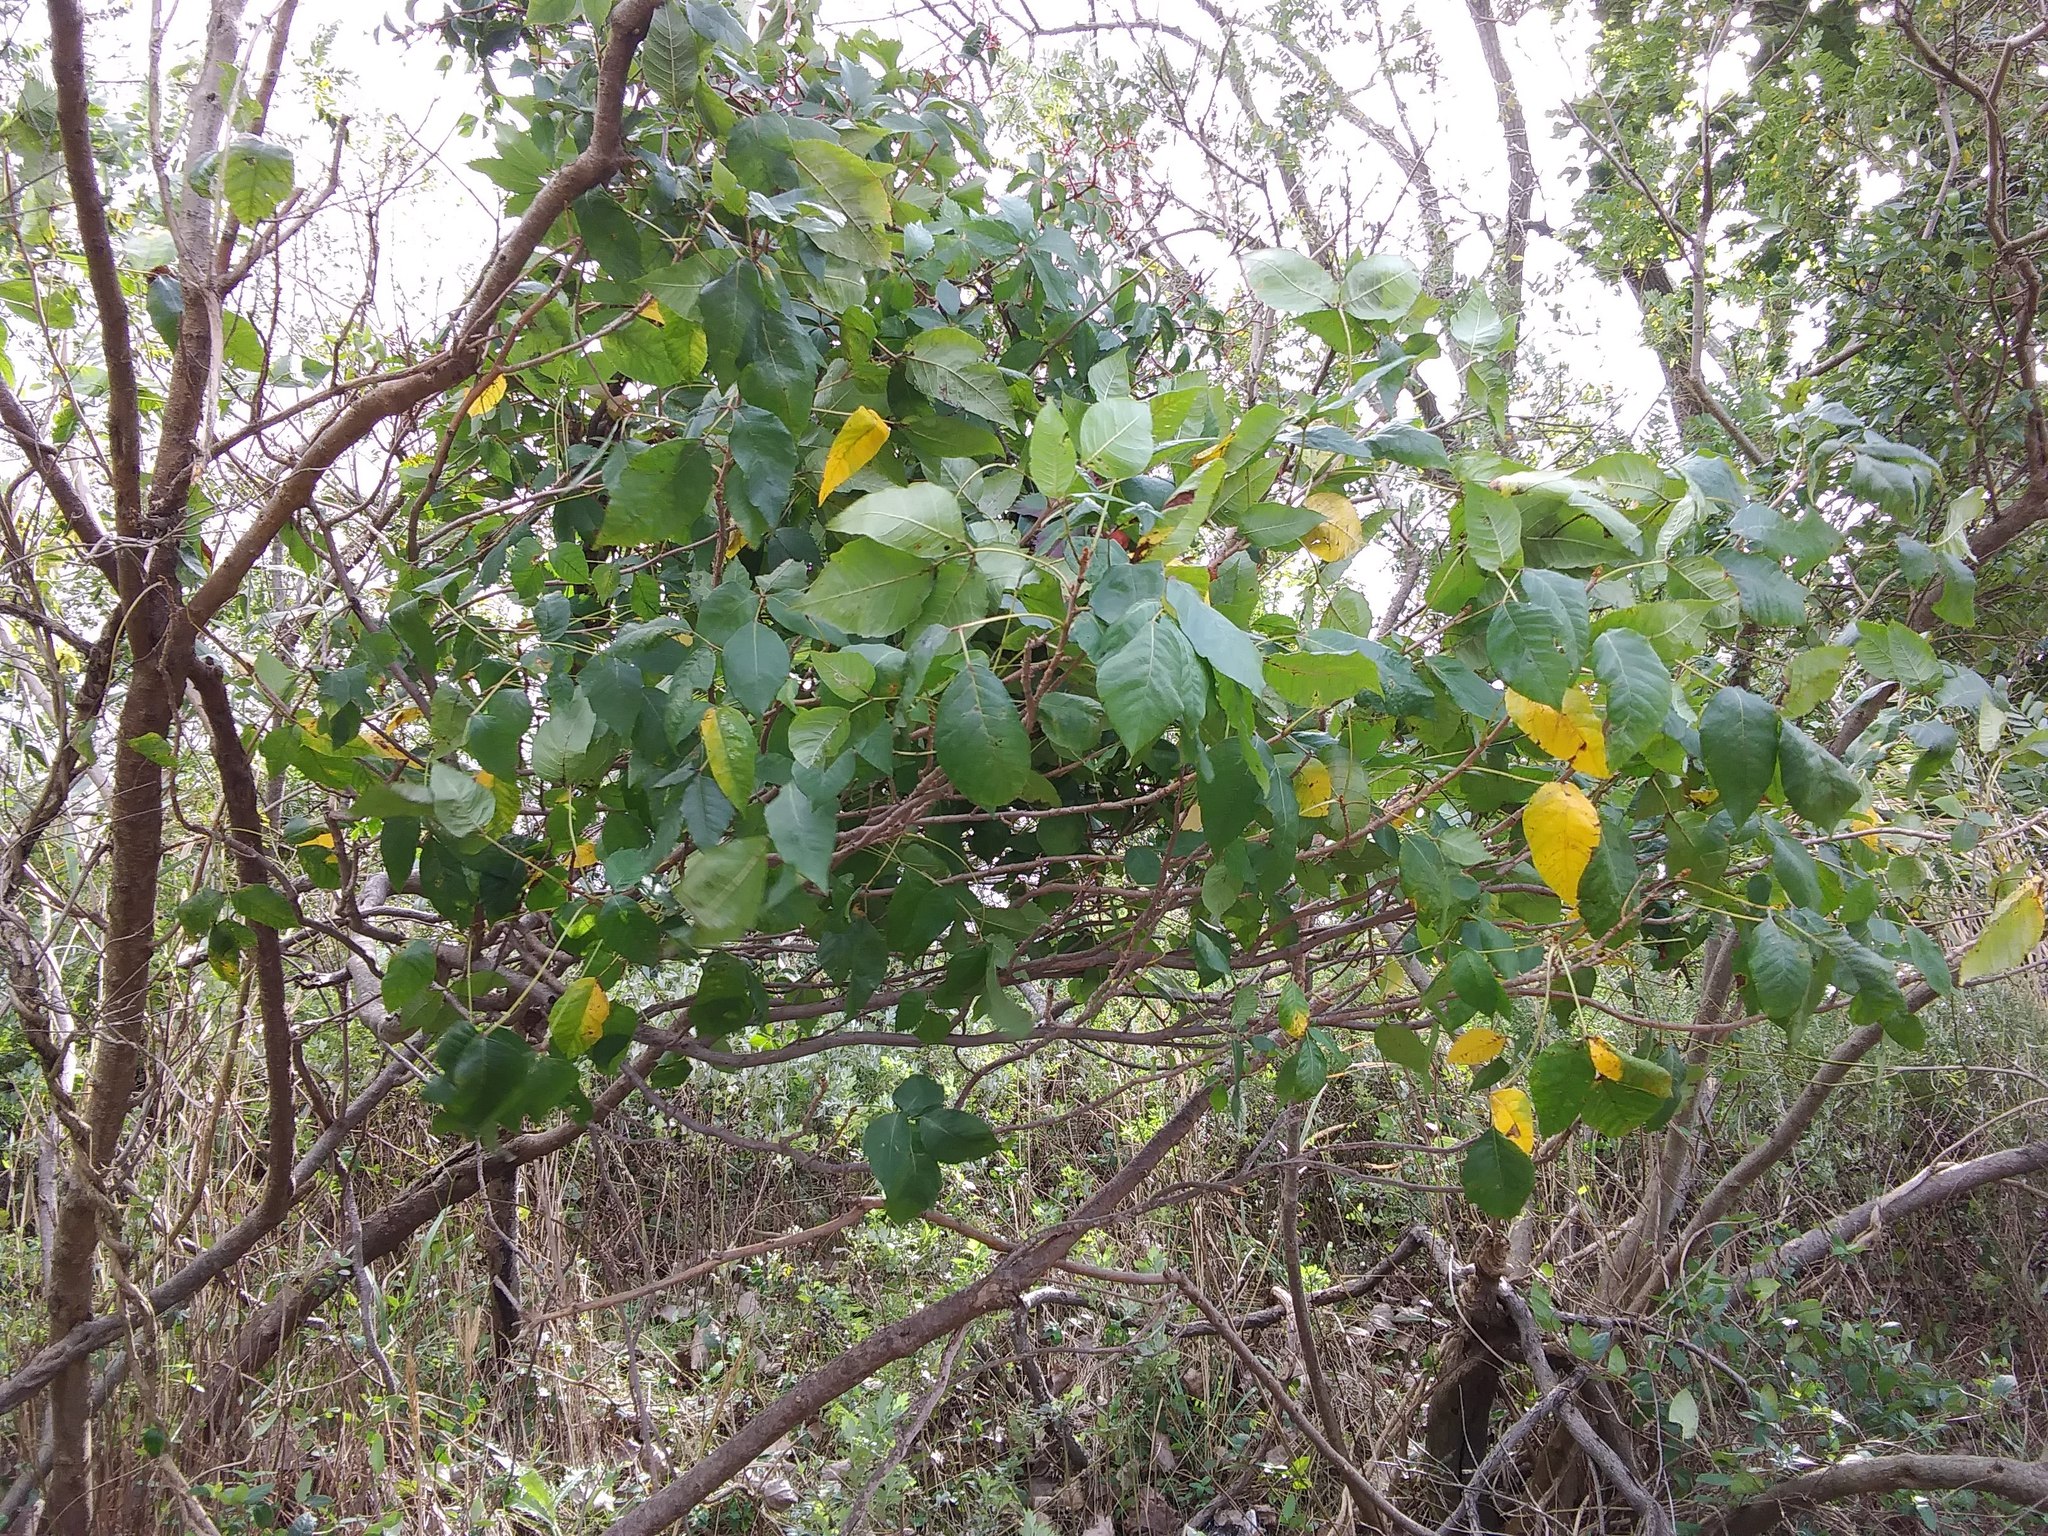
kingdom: Plantae
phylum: Tracheophyta
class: Magnoliopsida
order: Sapindales
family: Anacardiaceae
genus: Toxicodendron
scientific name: Toxicodendron radicans
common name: Poison ivy
